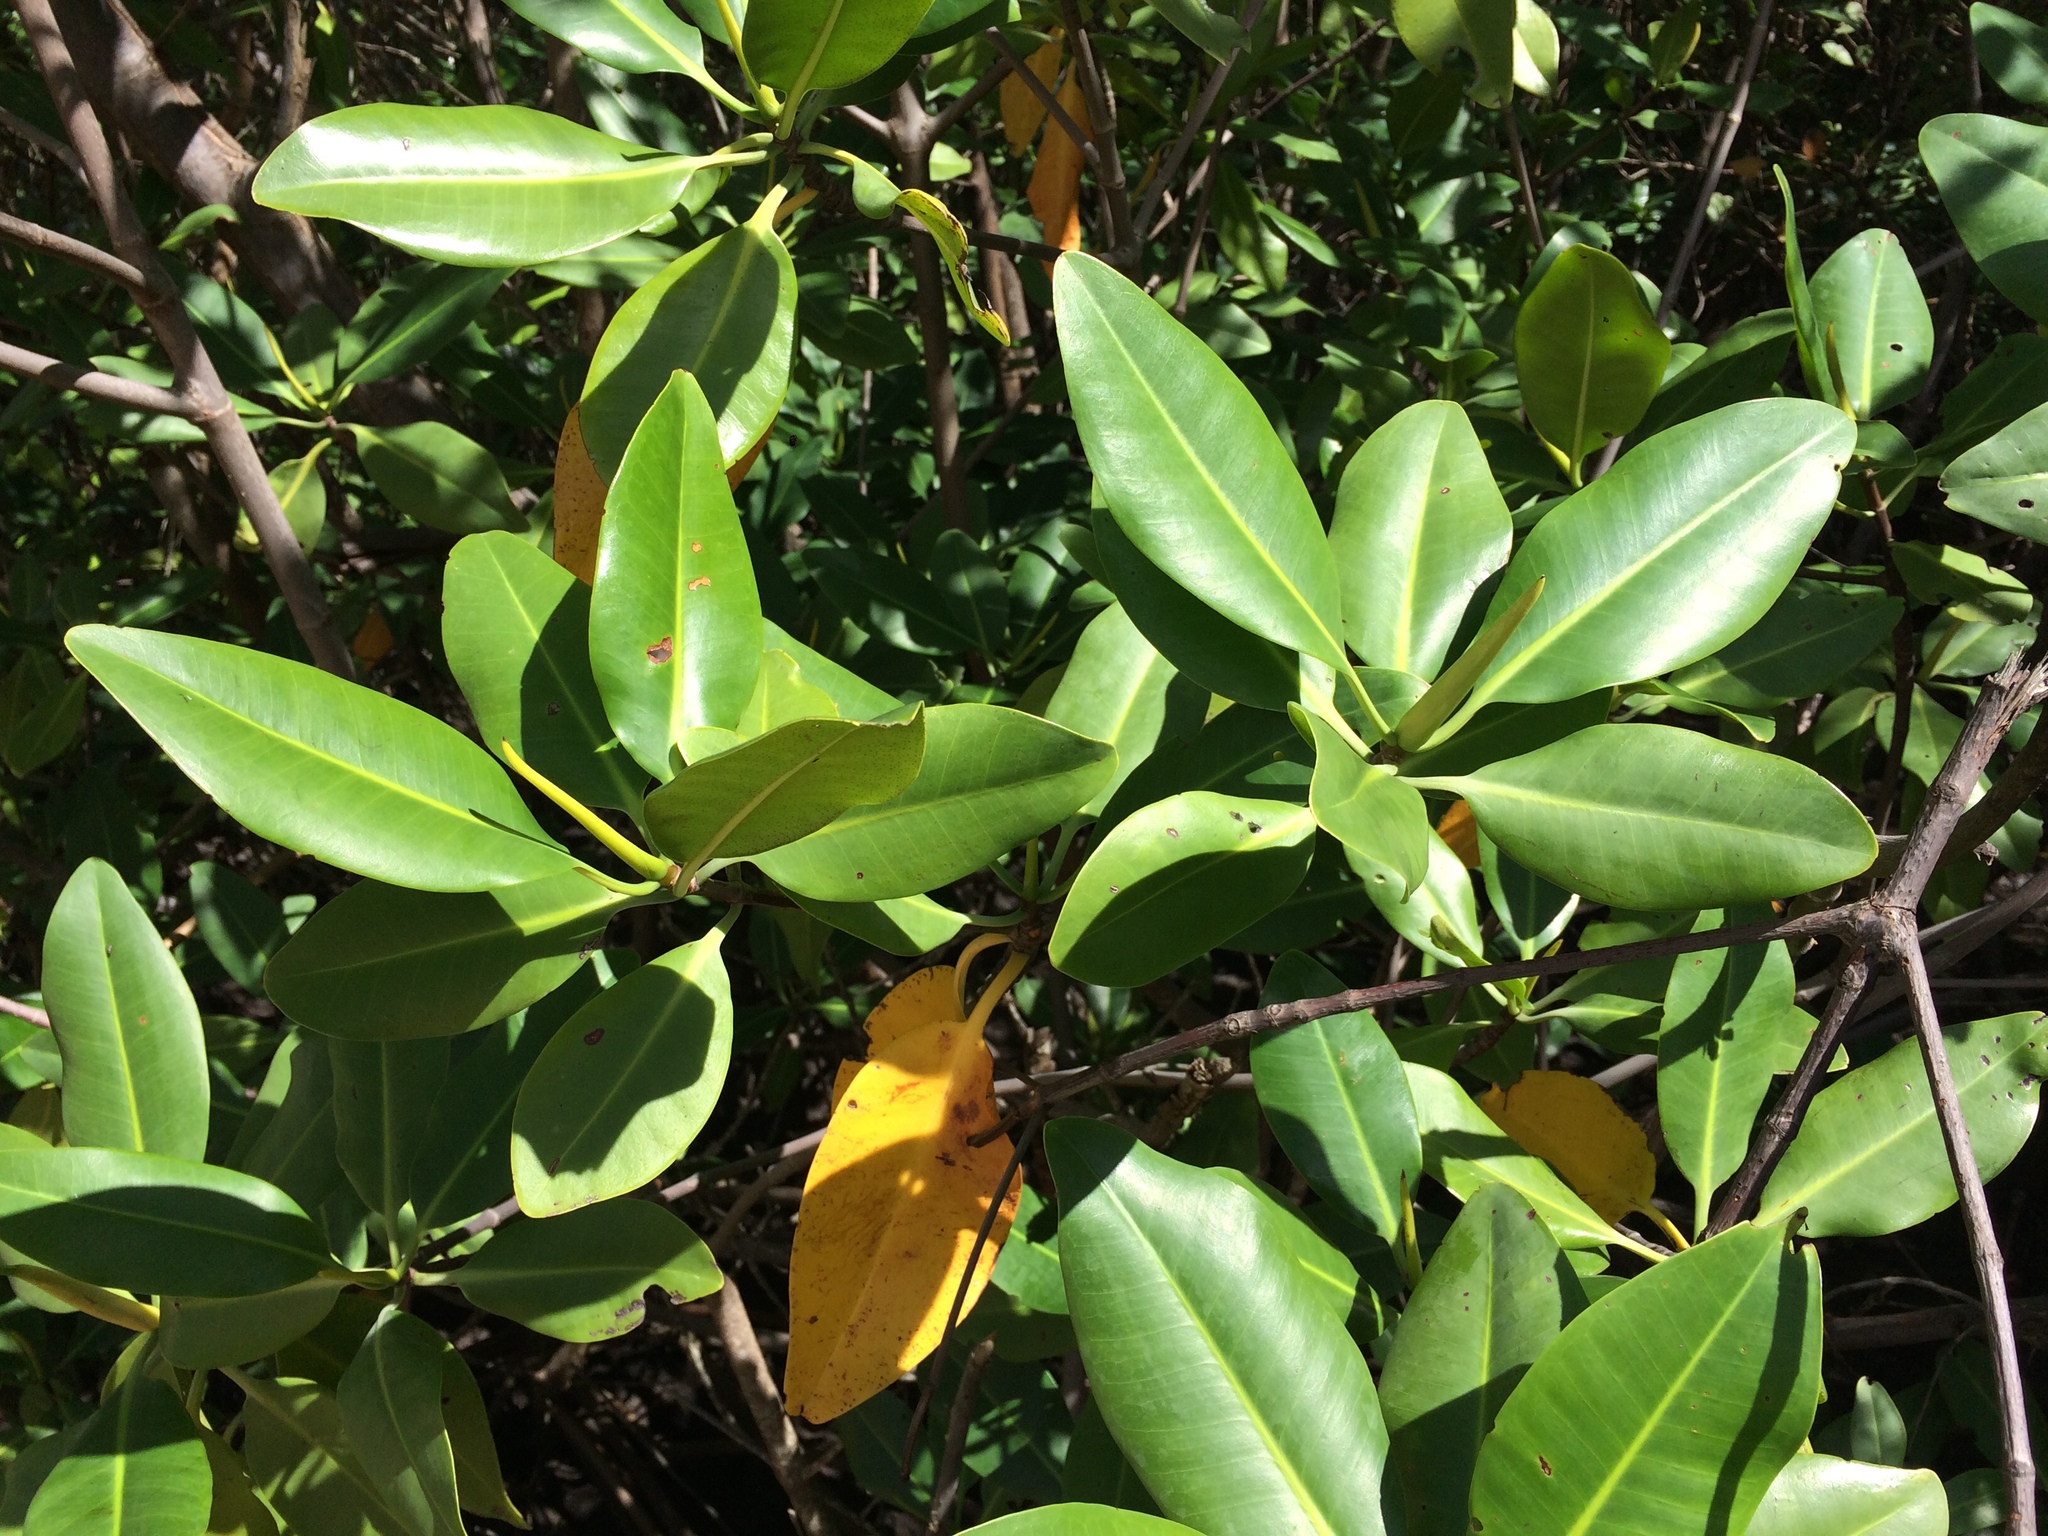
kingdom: Plantae
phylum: Tracheophyta
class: Magnoliopsida
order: Malpighiales
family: Rhizophoraceae
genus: Rhizophora
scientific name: Rhizophora mangle
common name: Red mangrove
